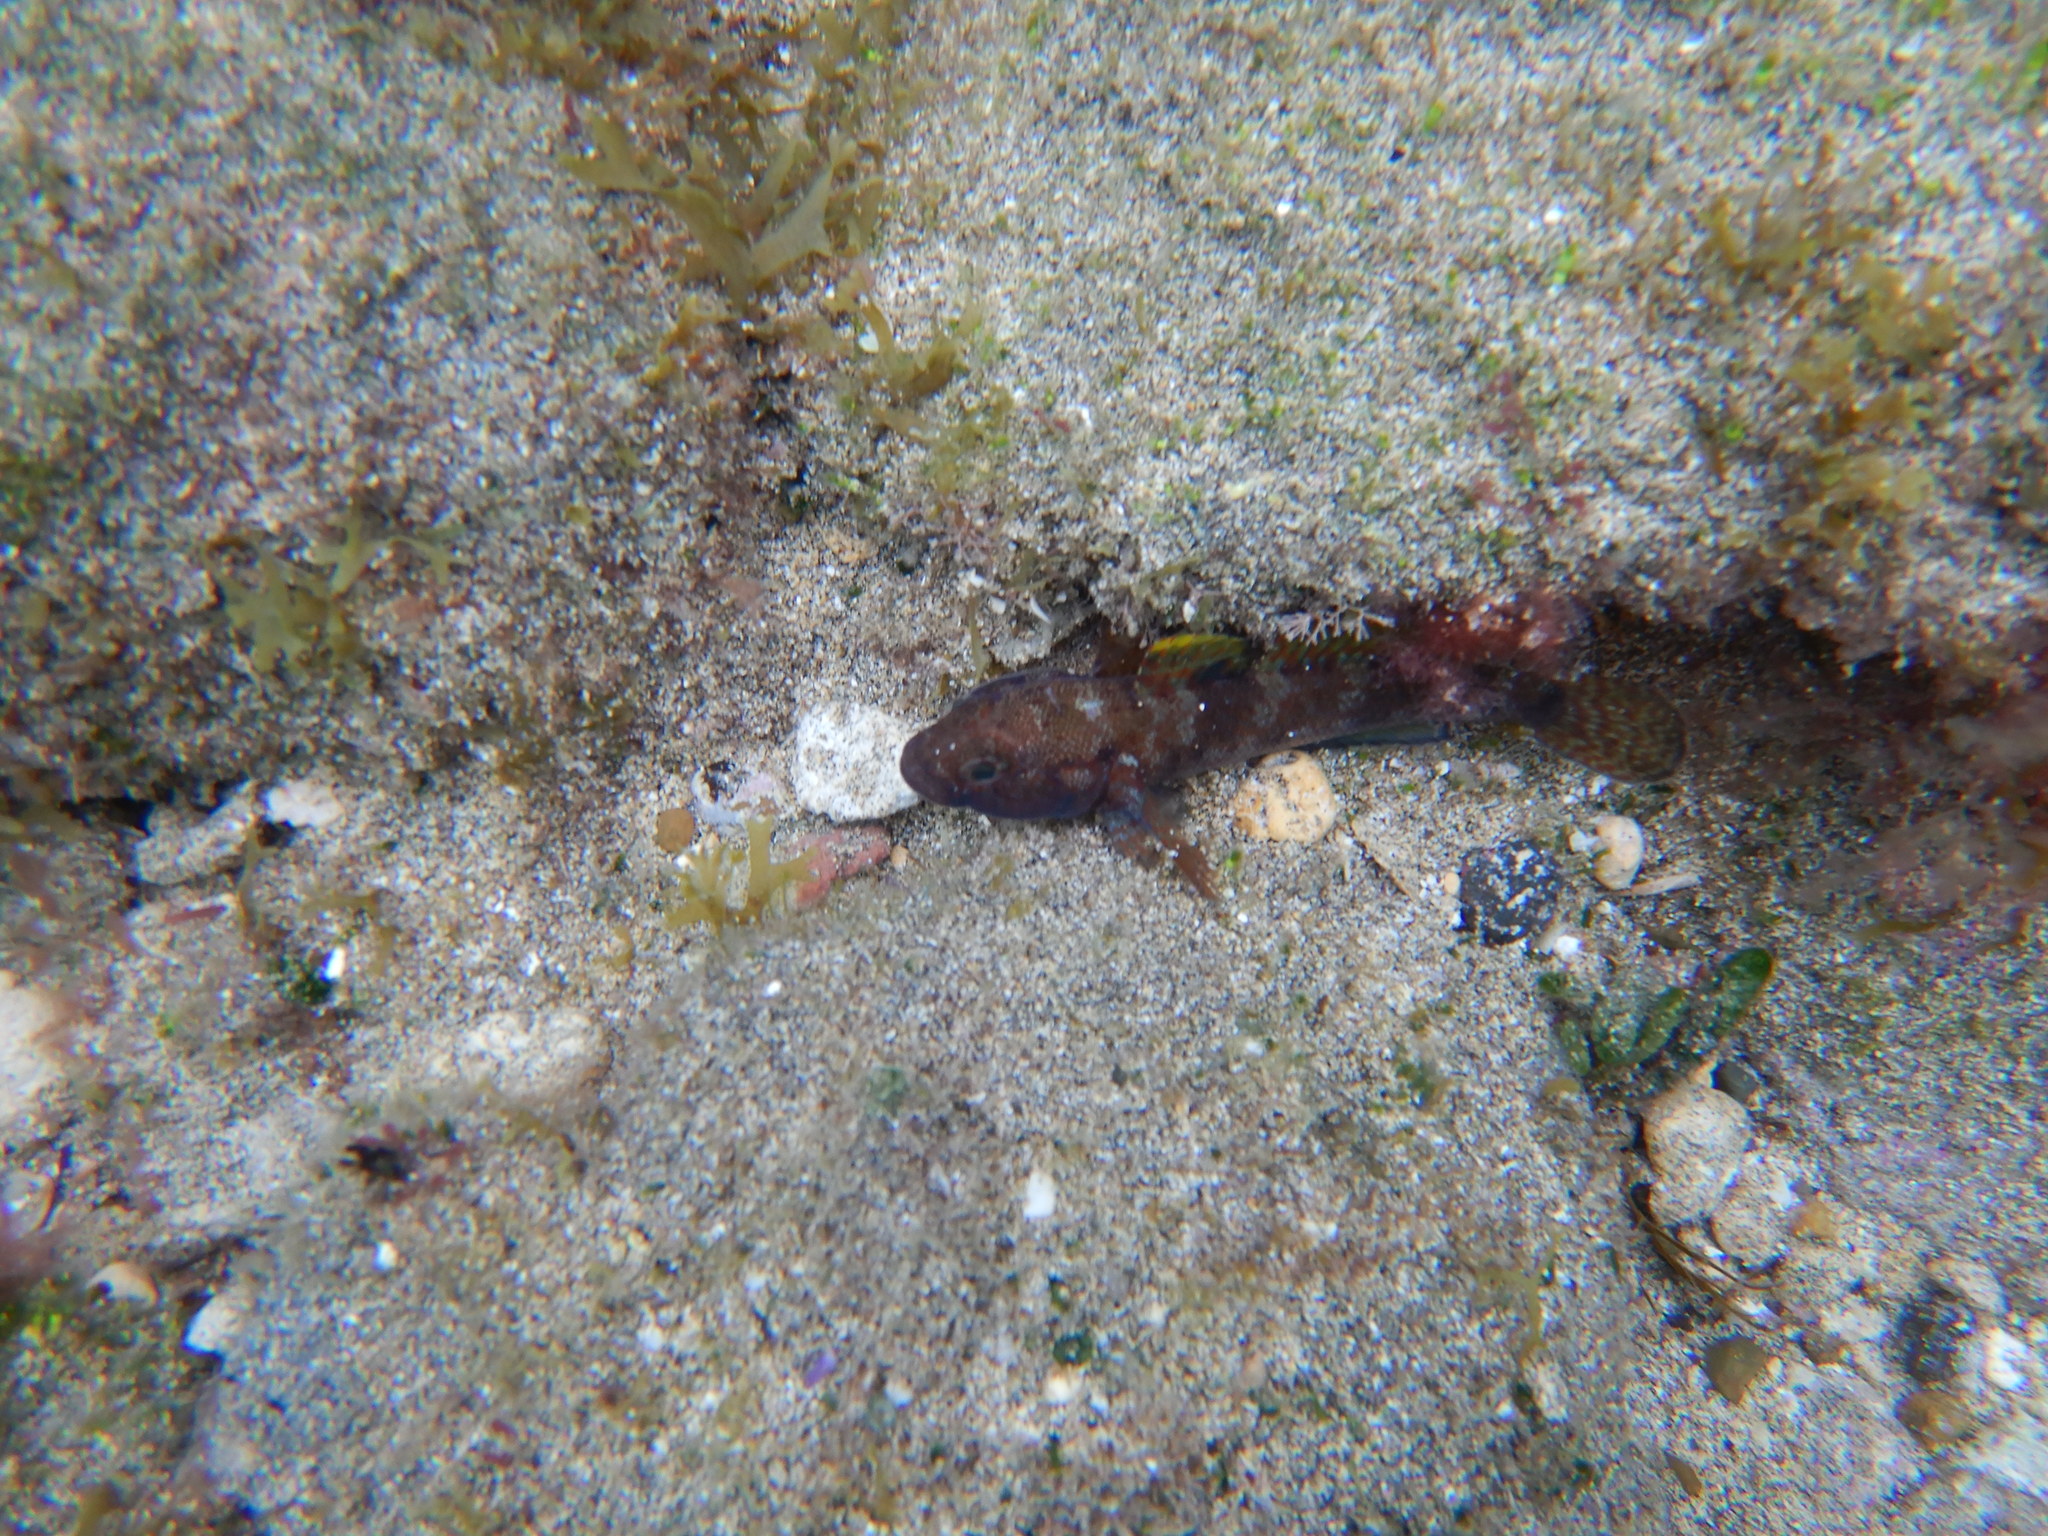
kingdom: Animalia
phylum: Chordata
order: Perciformes
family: Gobiidae
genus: Gobius
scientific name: Gobius paganellus
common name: Rock goby
